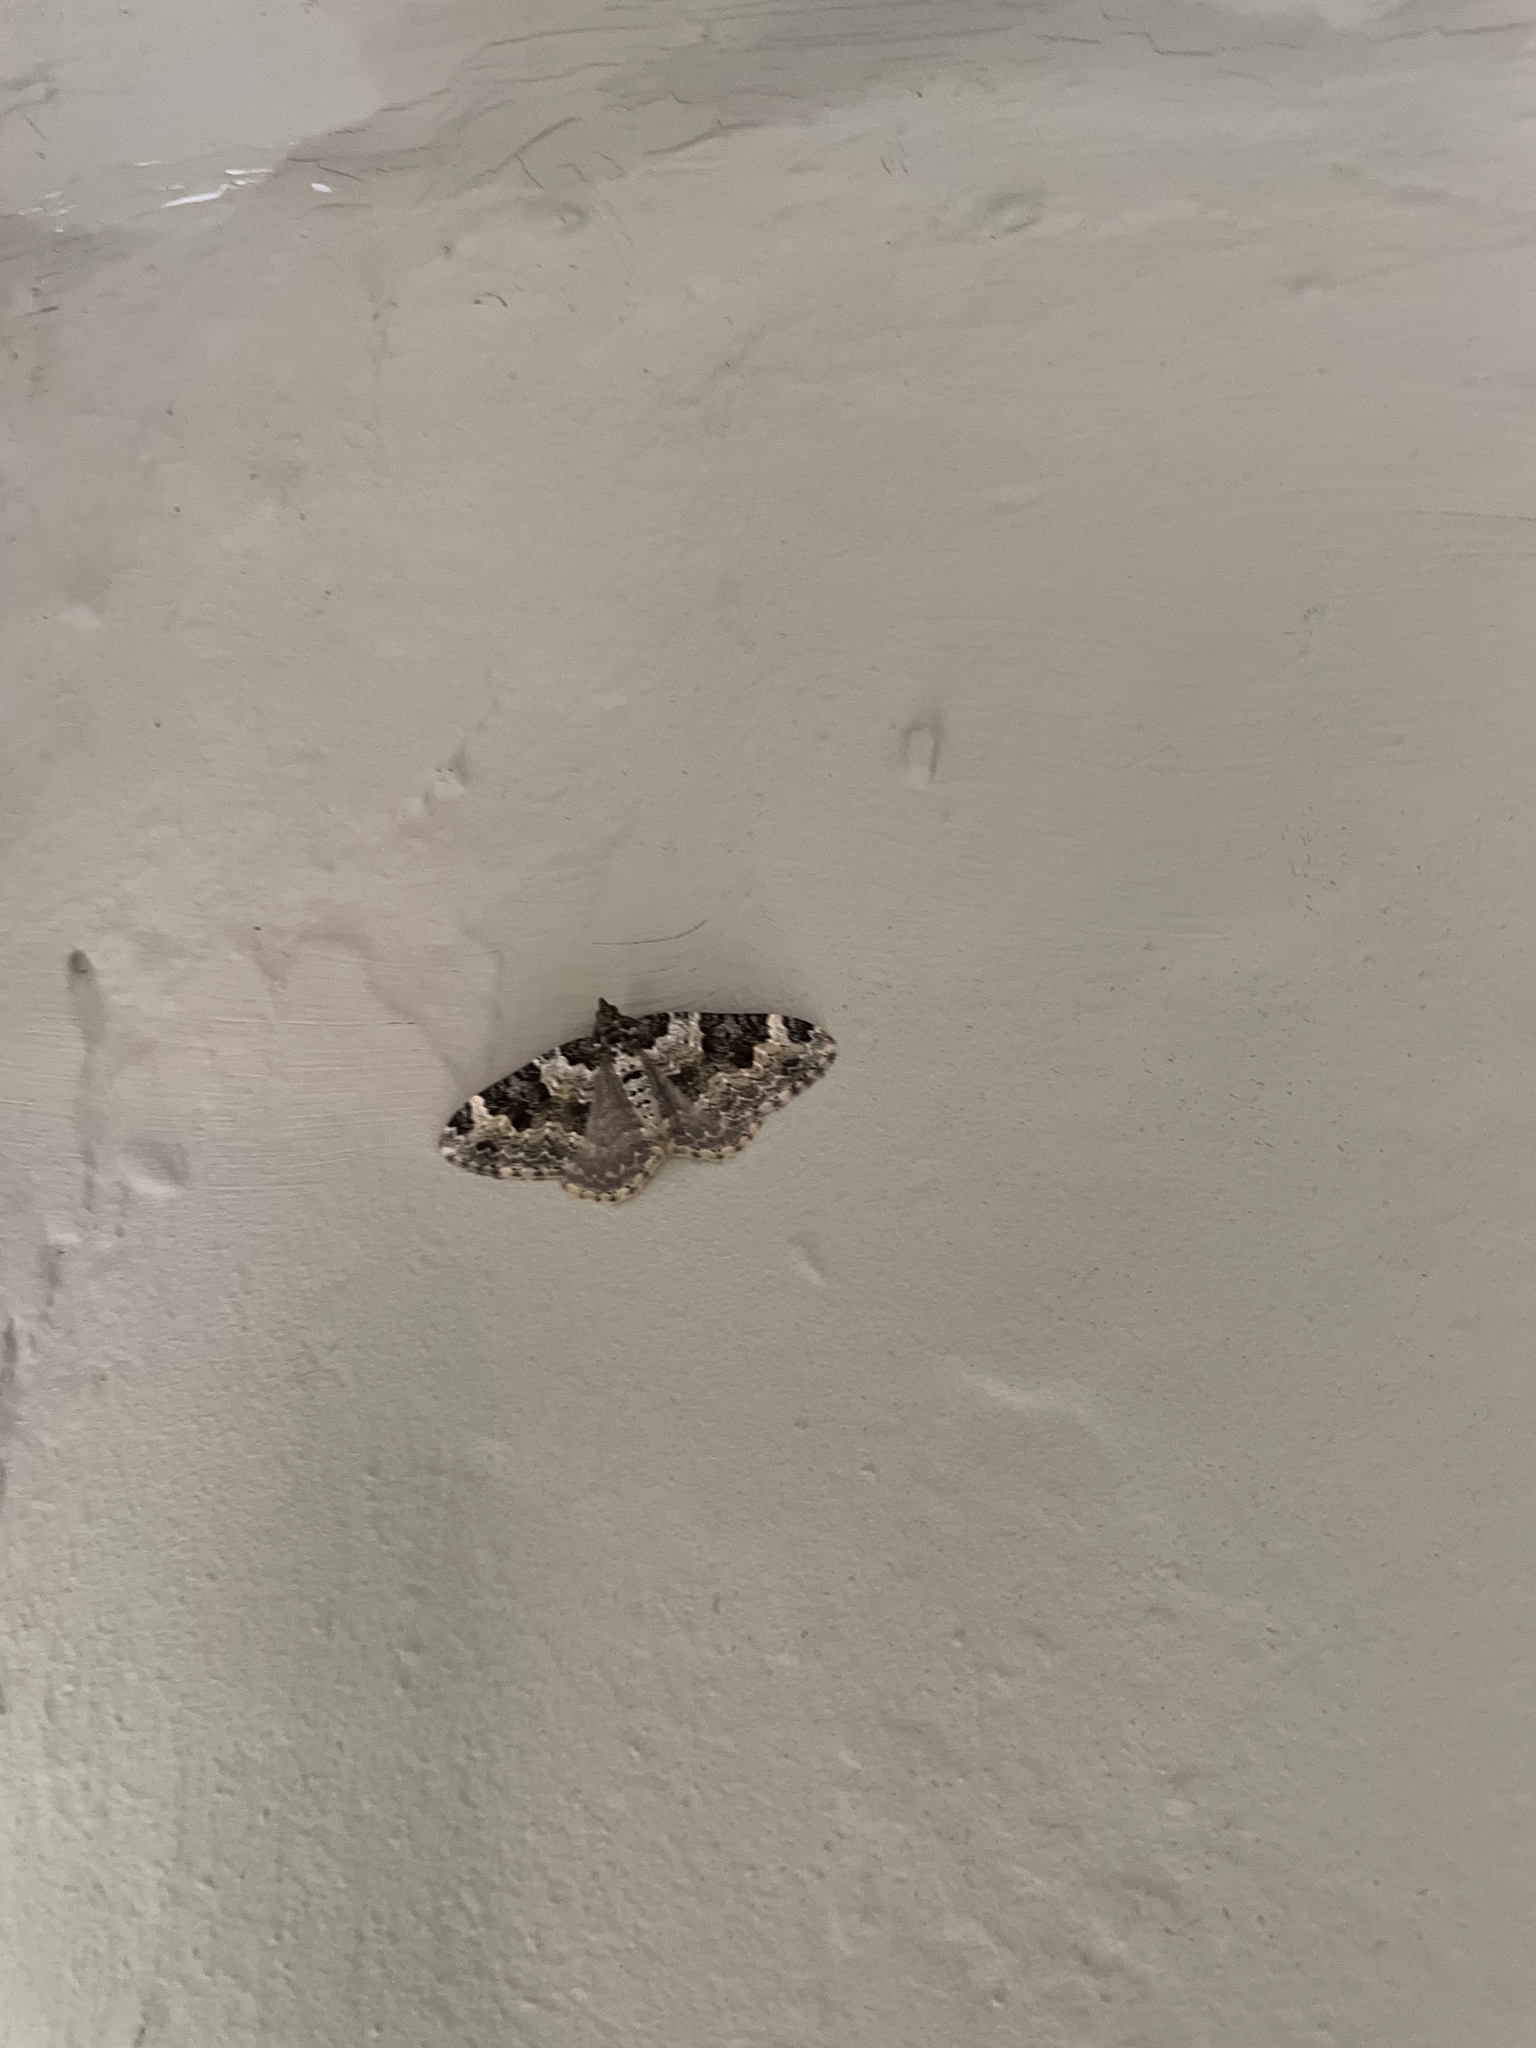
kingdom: Animalia
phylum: Arthropoda
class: Insecta
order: Lepidoptera
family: Geometridae
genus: Xanthorhoe
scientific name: Xanthorhoe fluctuata
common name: Garden carpet
